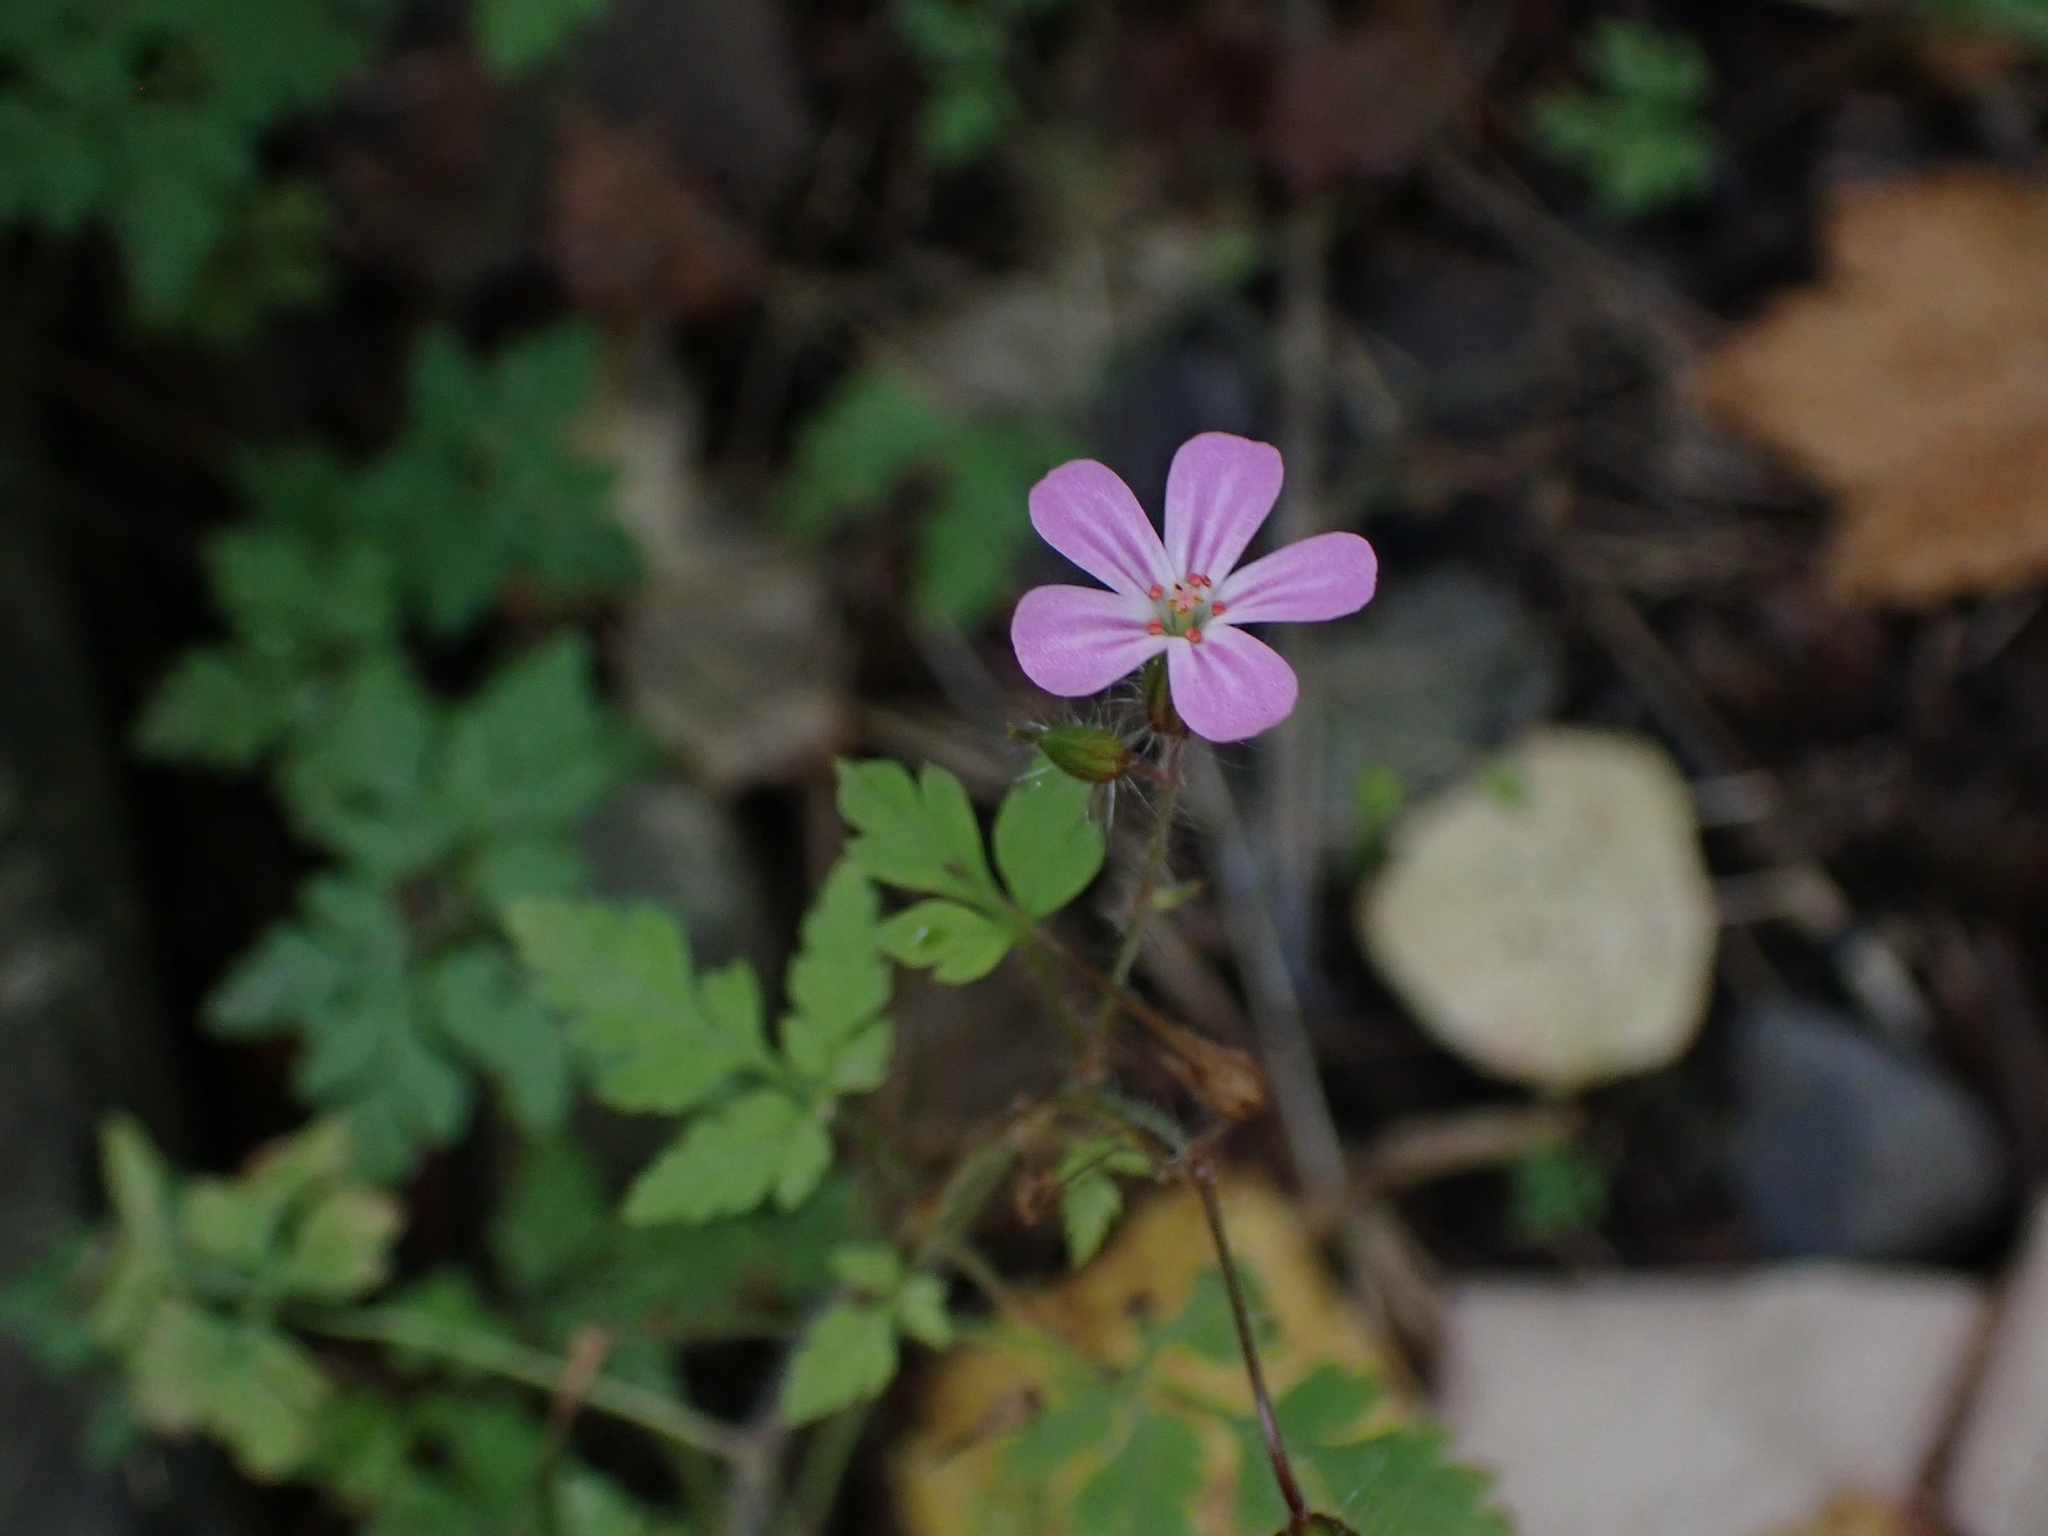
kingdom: Plantae
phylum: Tracheophyta
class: Magnoliopsida
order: Geraniales
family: Geraniaceae
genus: Geranium
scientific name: Geranium robertianum
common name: Herb-robert
